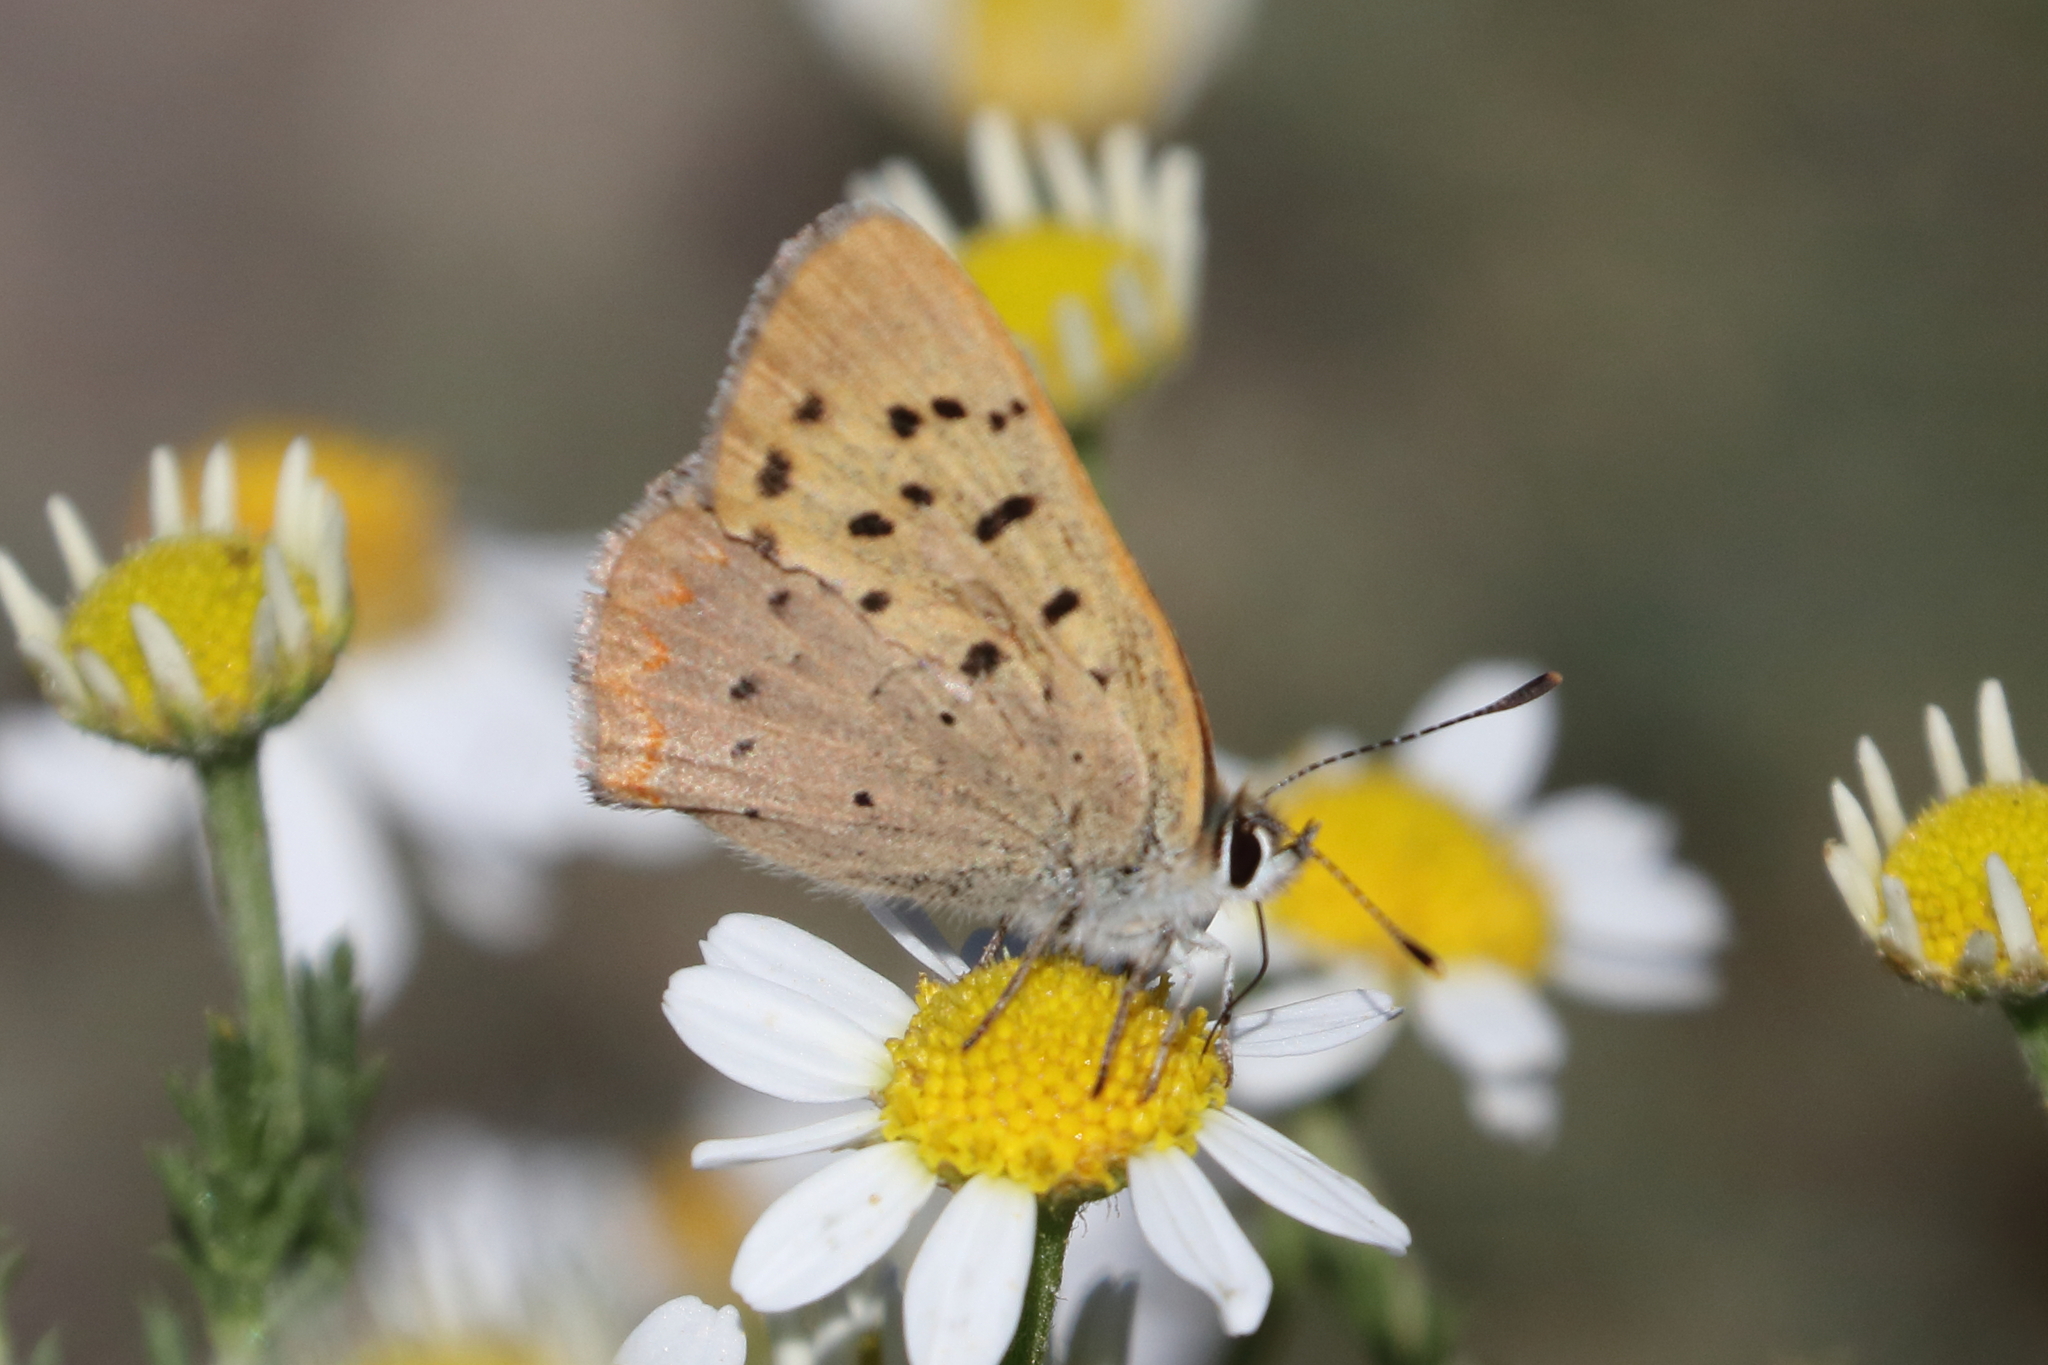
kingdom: Animalia
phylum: Arthropoda
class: Insecta
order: Lepidoptera
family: Lycaenidae
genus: Tharsalea
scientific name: Tharsalea helloides
